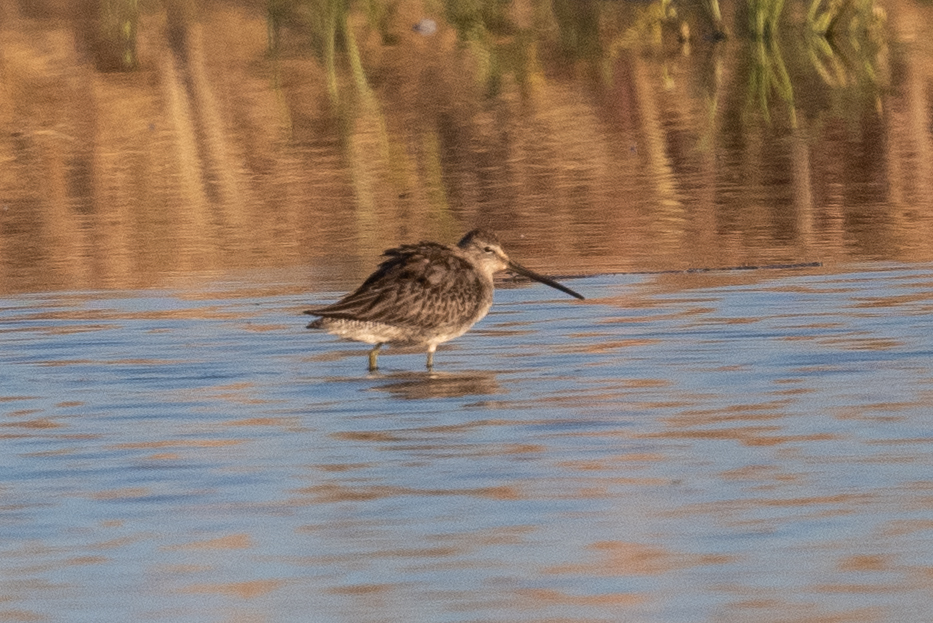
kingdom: Animalia
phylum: Chordata
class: Aves
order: Charadriiformes
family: Scolopacidae
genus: Limnodromus
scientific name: Limnodromus scolopaceus
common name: Long-billed dowitcher
